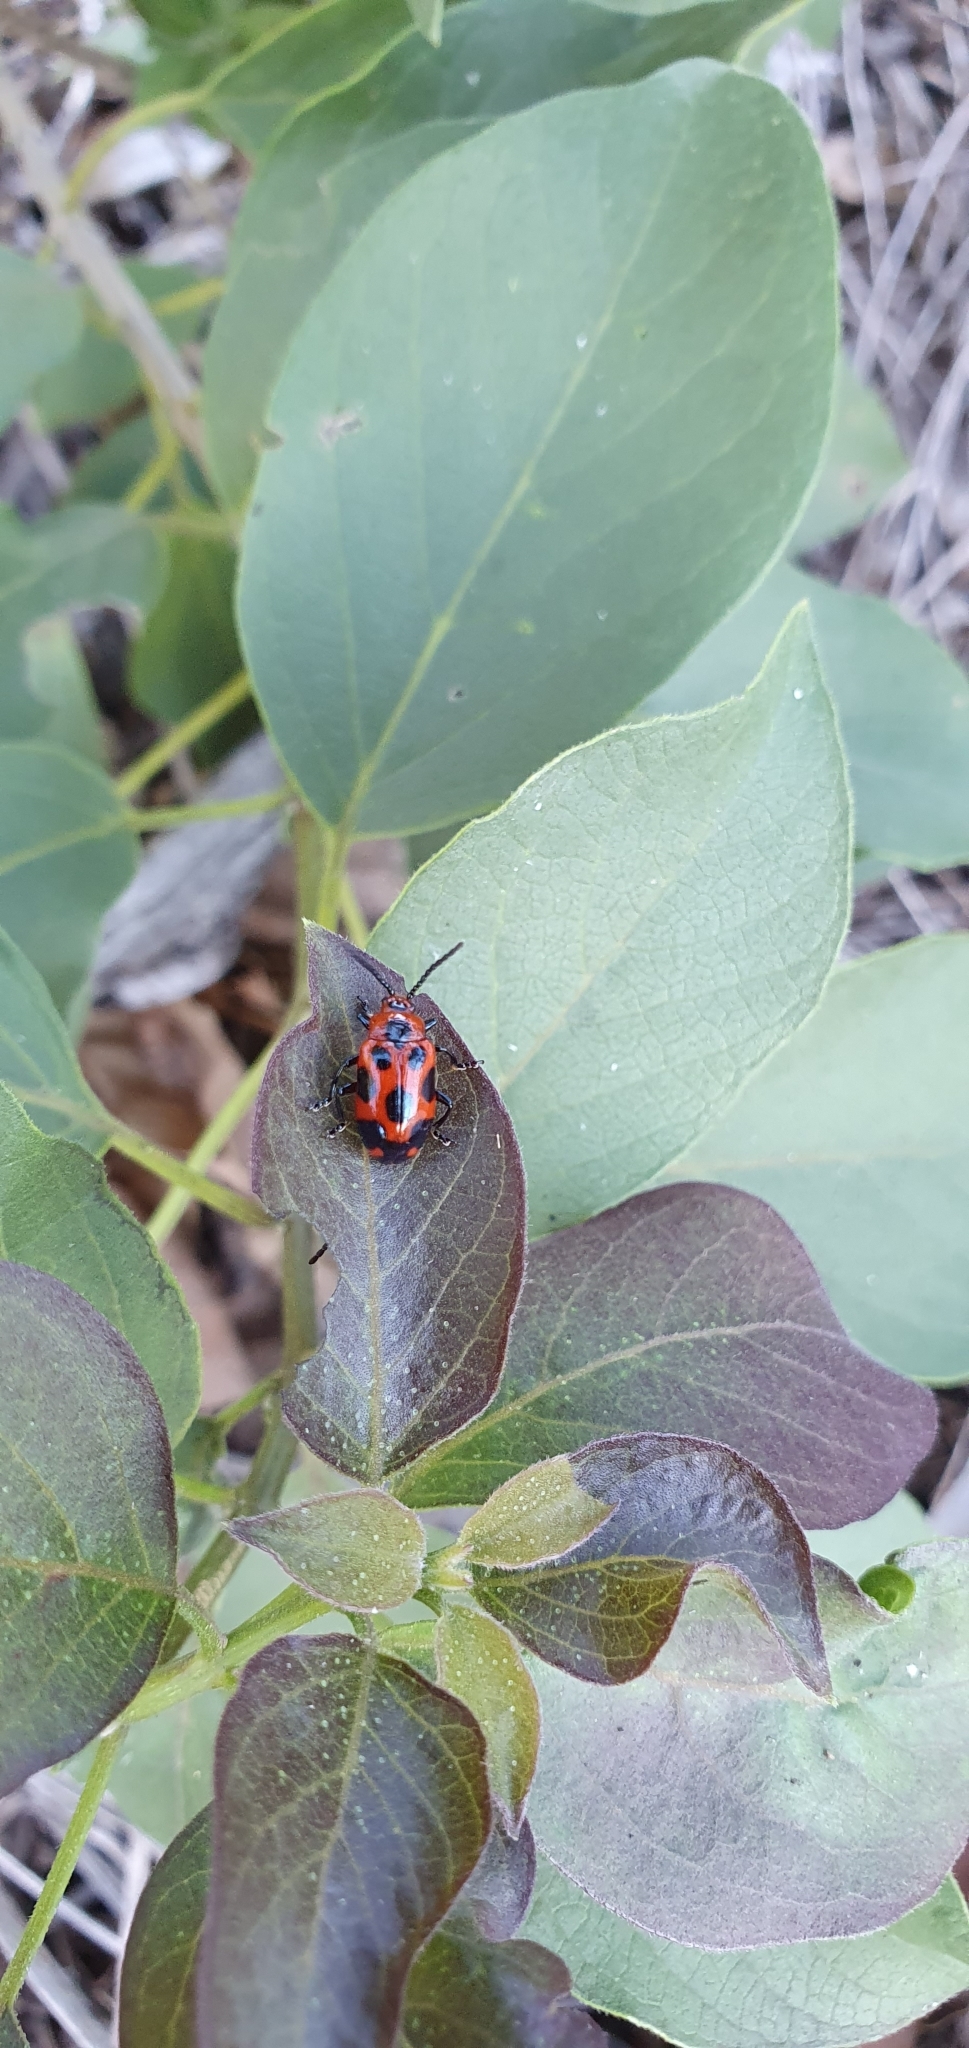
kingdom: Animalia
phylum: Arthropoda
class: Insecta
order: Coleoptera
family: Chrysomelidae
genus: Phyllocharis
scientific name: Phyllocharis
